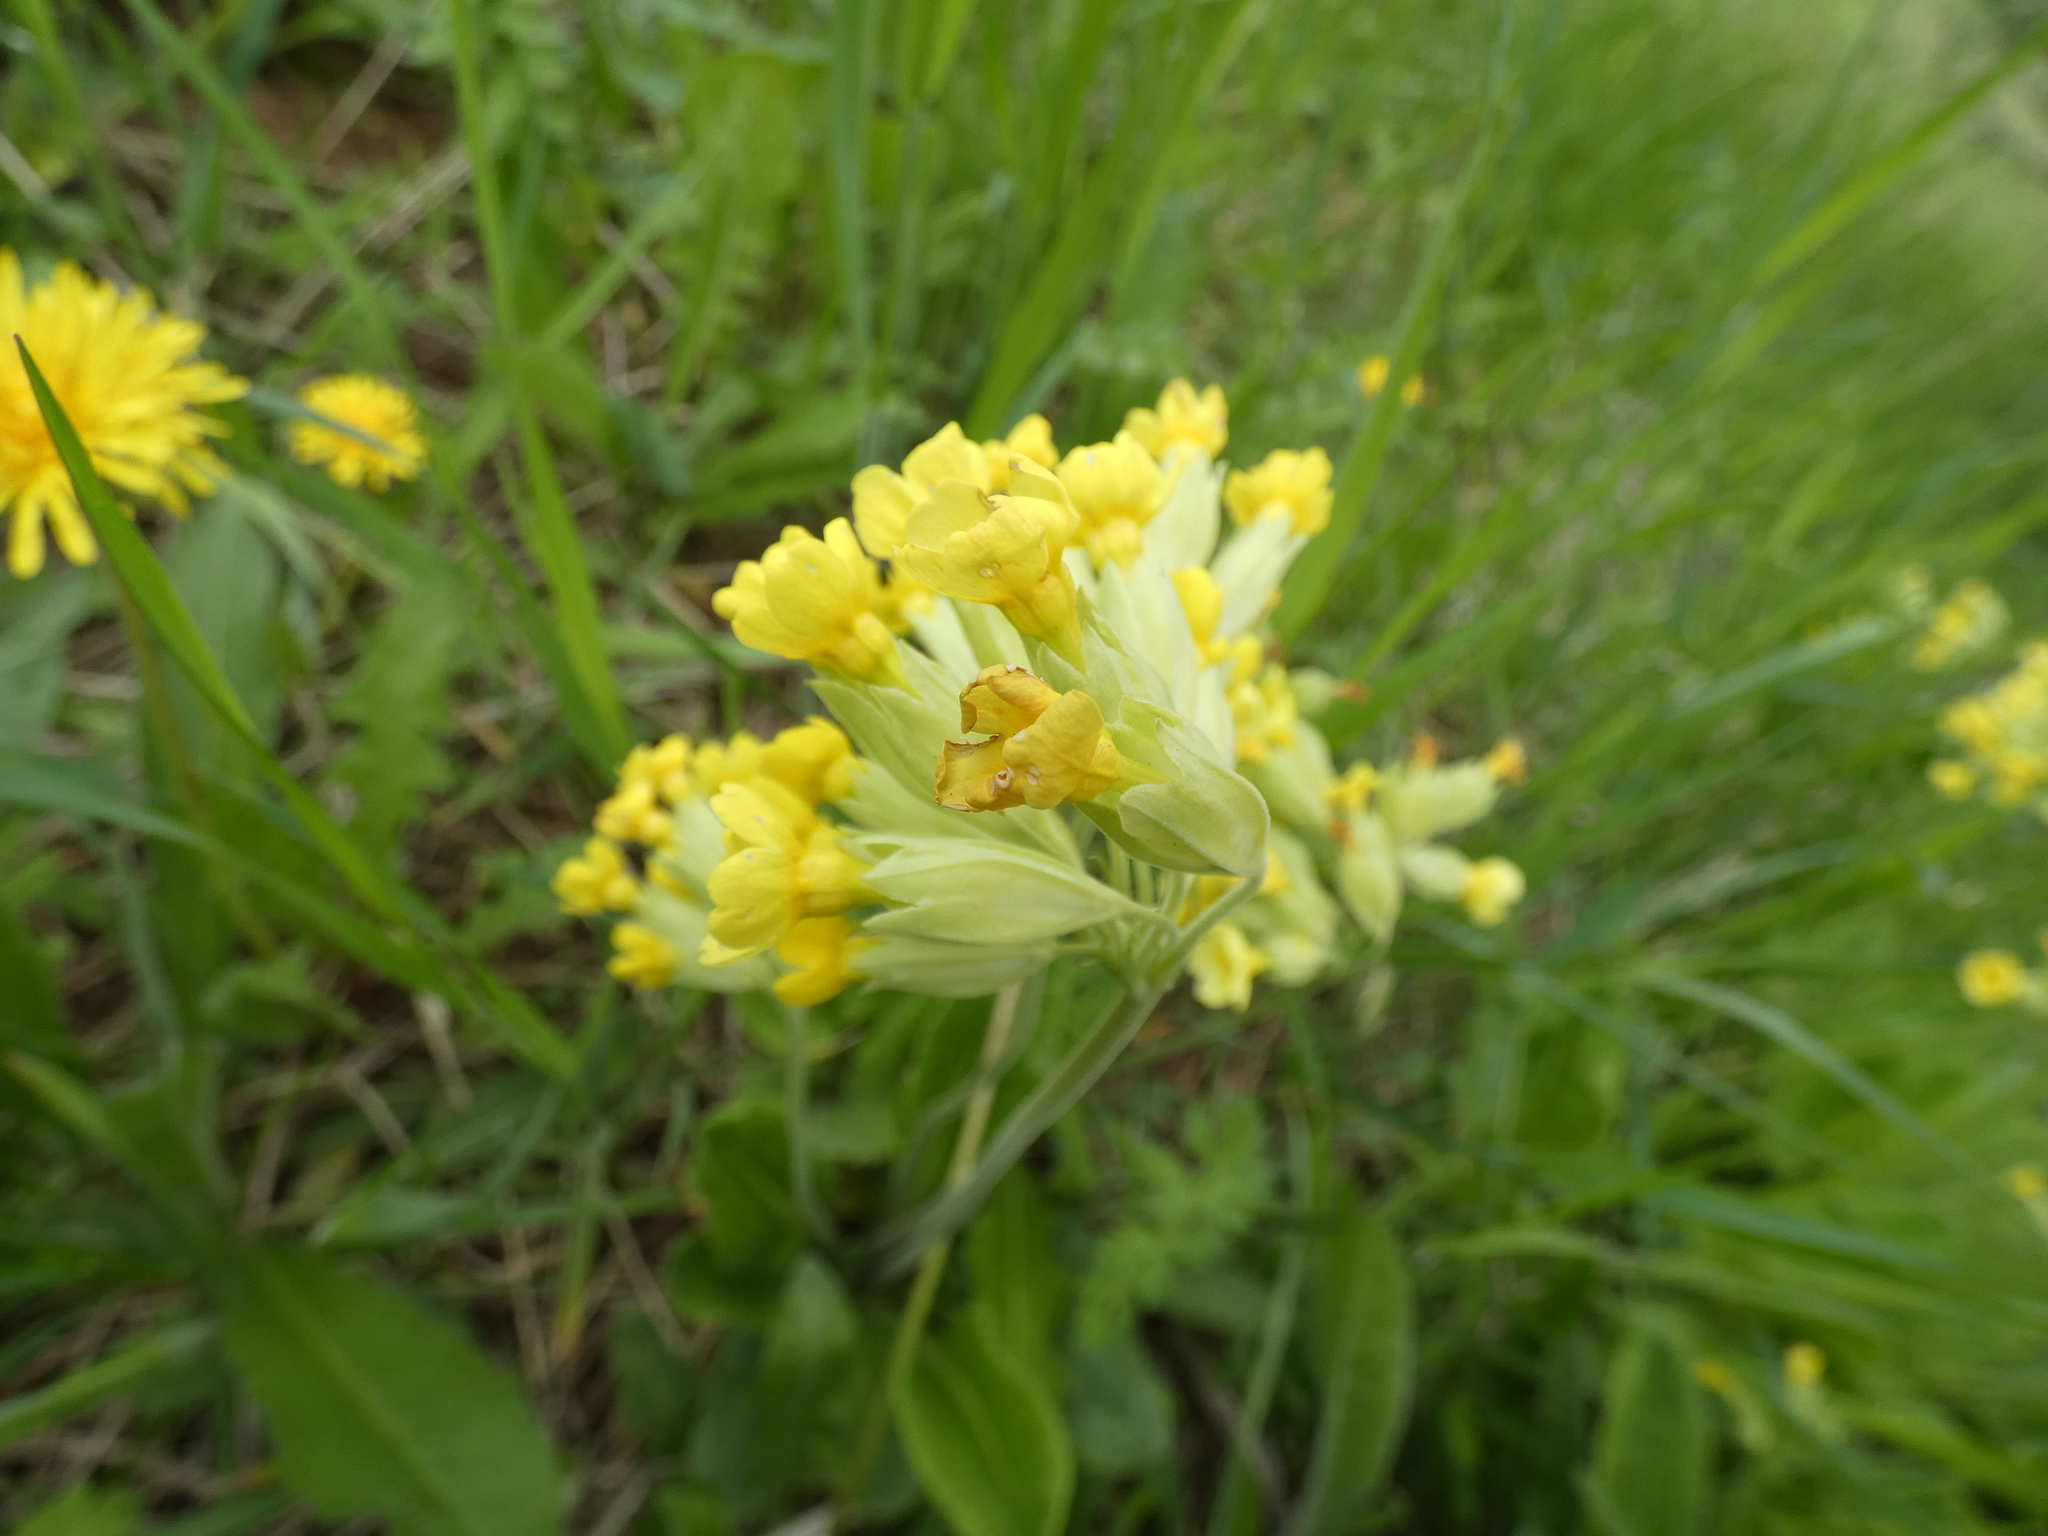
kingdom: Plantae
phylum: Tracheophyta
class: Magnoliopsida
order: Ericales
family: Primulaceae
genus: Primula
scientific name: Primula veris
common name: Cowslip
